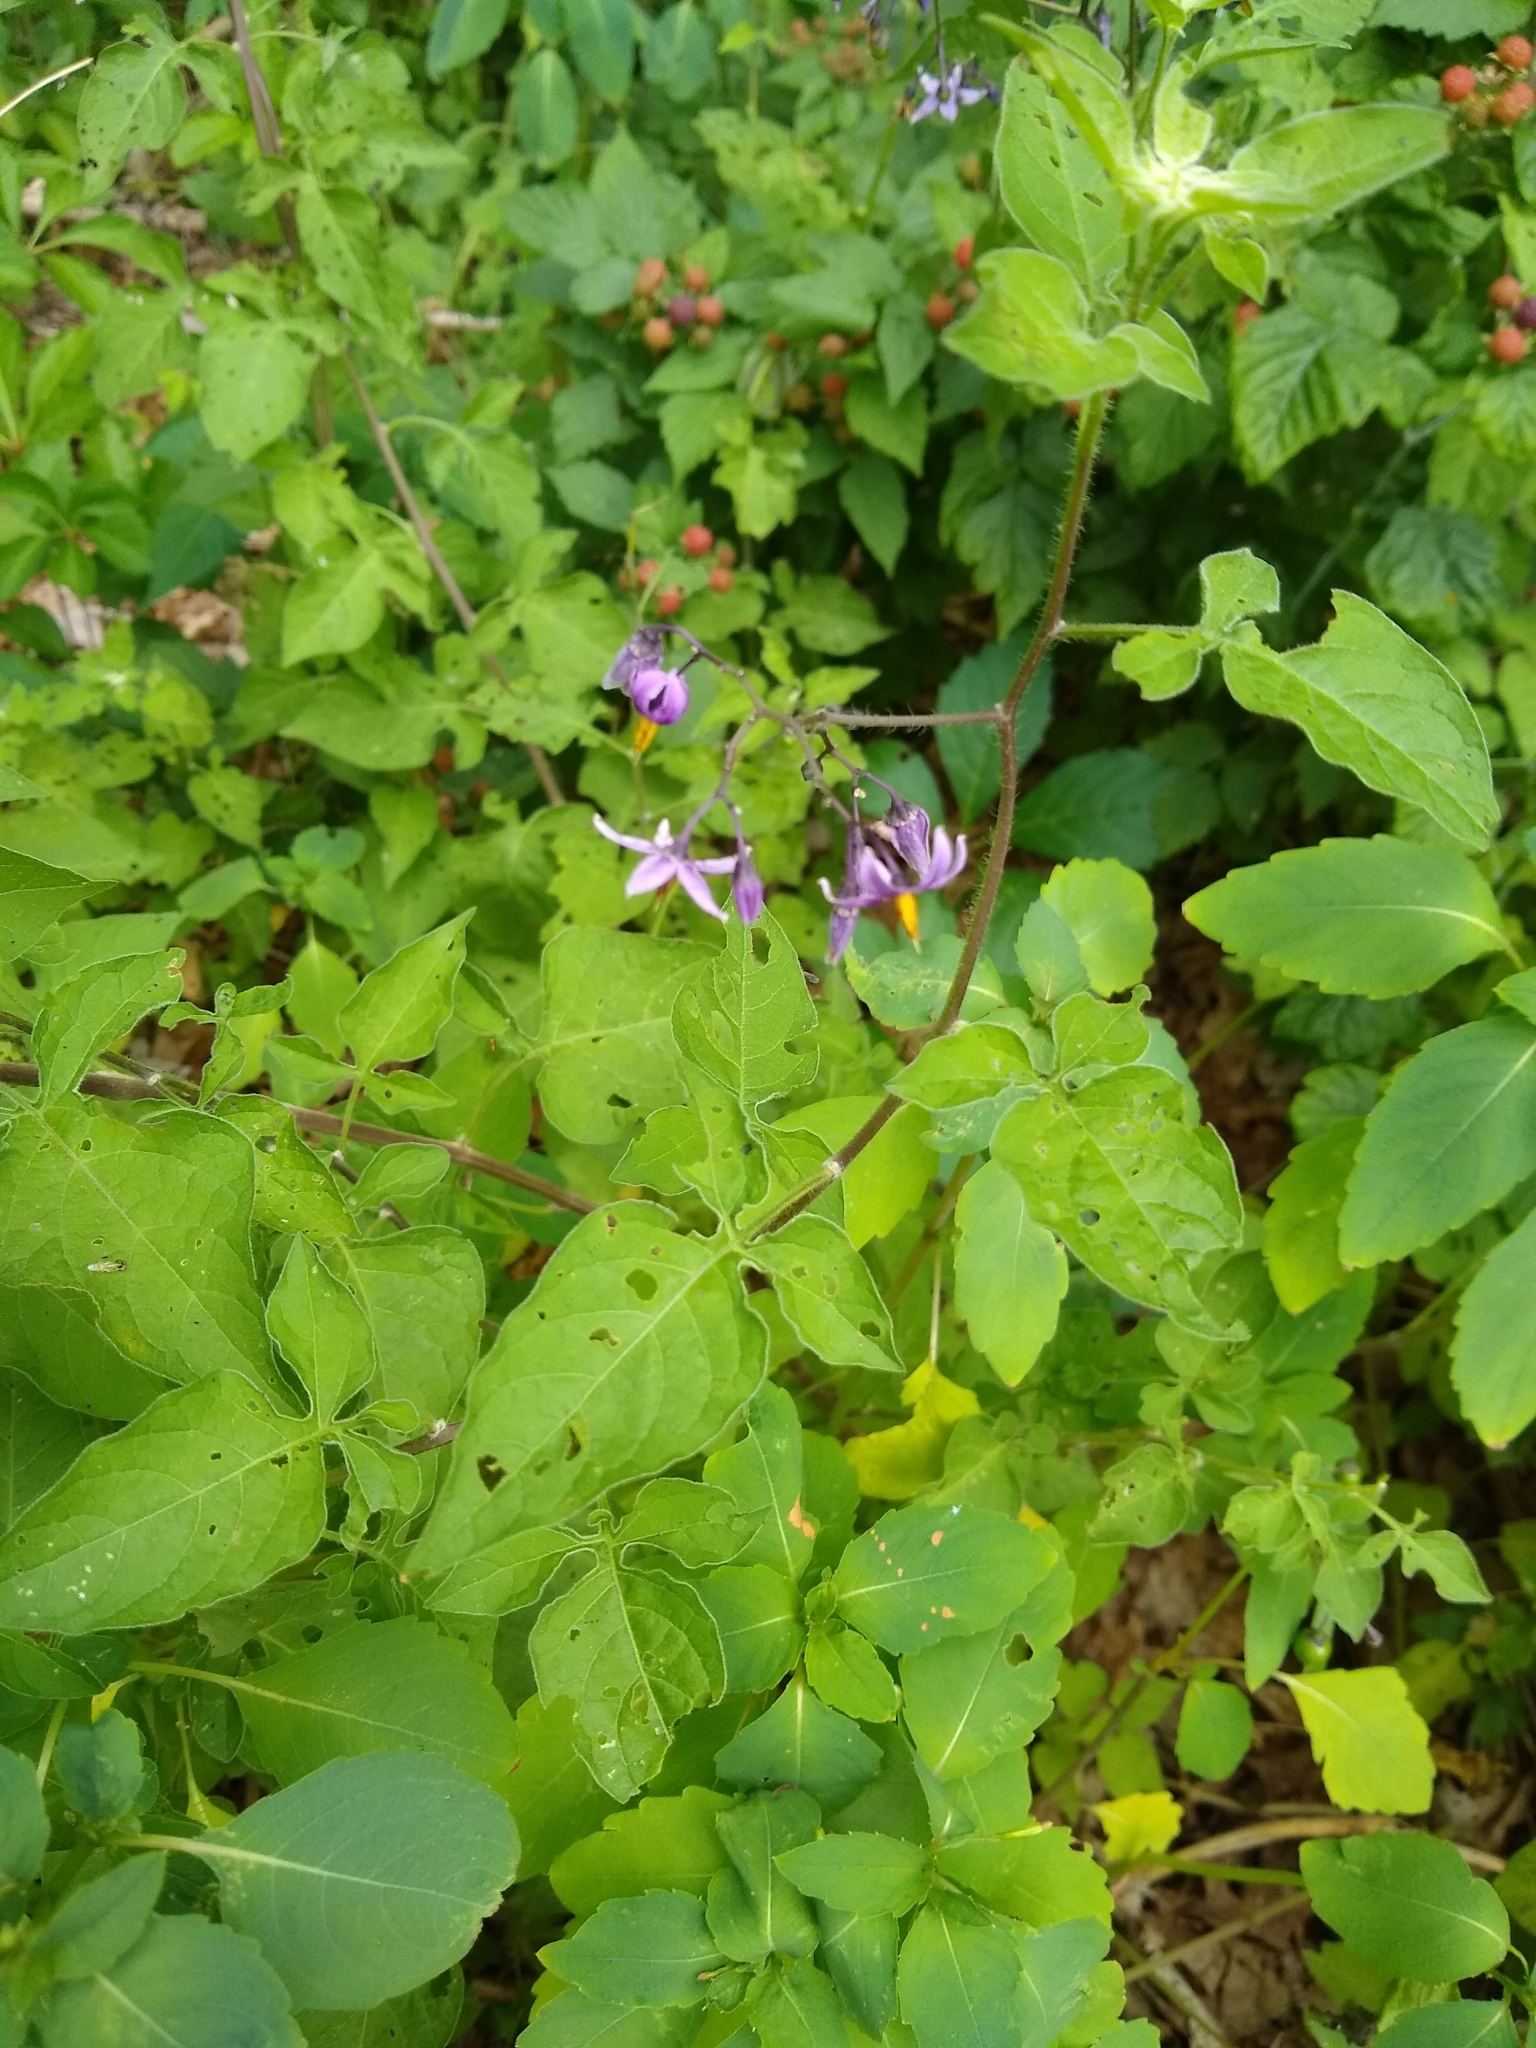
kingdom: Plantae
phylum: Tracheophyta
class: Magnoliopsida
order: Solanales
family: Solanaceae
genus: Solanum
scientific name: Solanum dulcamara
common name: Climbing nightshade
